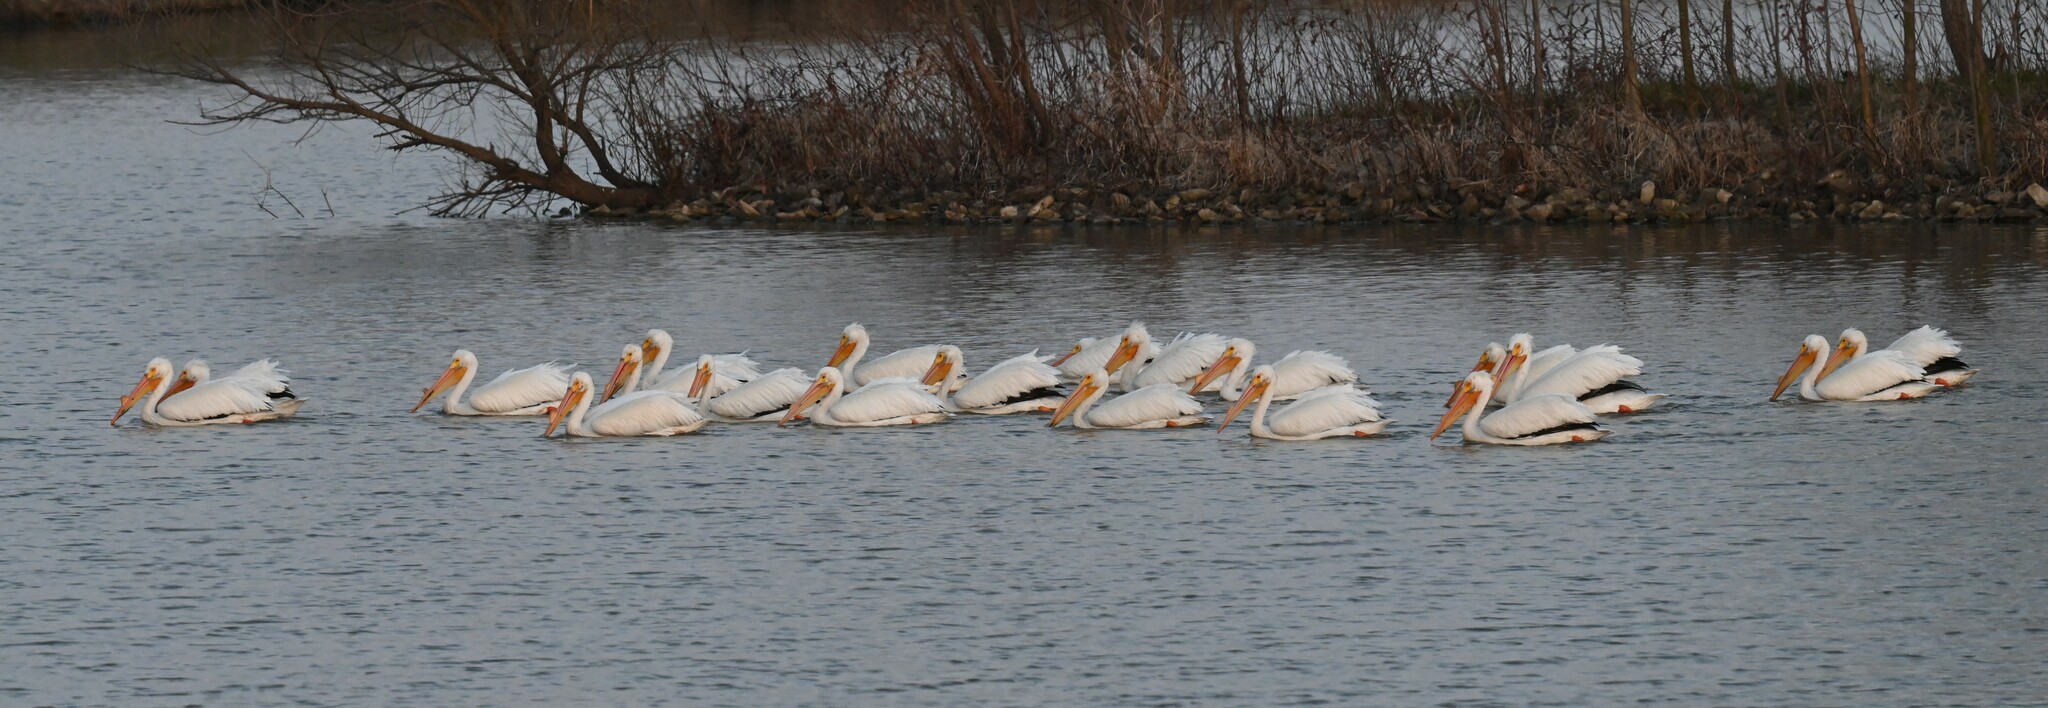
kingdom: Animalia
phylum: Chordata
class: Aves
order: Pelecaniformes
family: Pelecanidae
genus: Pelecanus
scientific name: Pelecanus erythrorhynchos
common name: American white pelican
